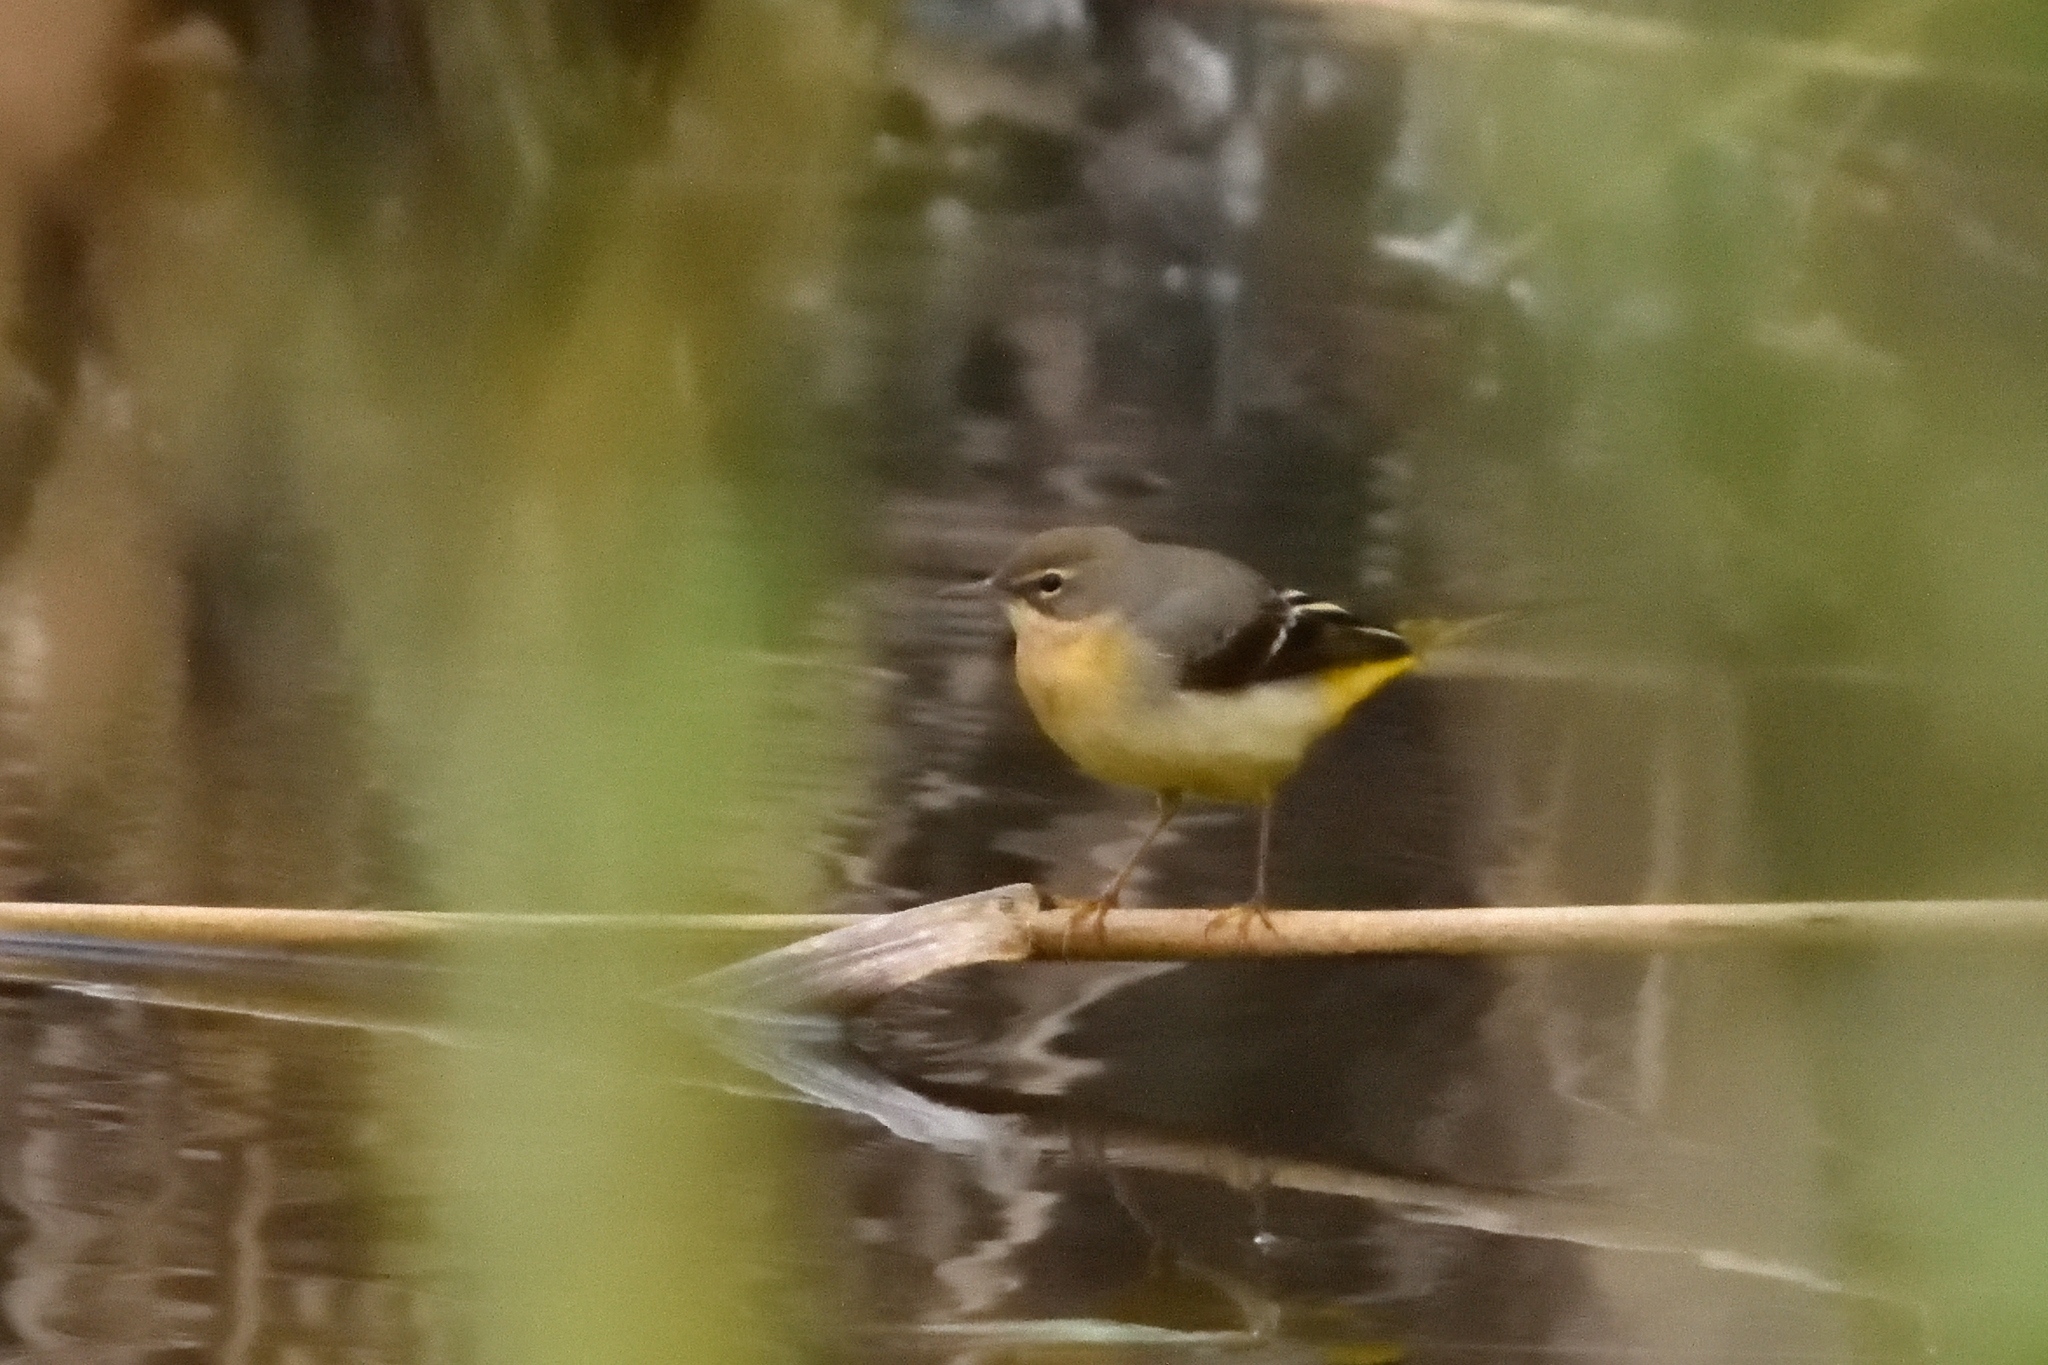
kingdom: Animalia
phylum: Chordata
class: Aves
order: Passeriformes
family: Motacillidae
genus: Motacilla
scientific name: Motacilla cinerea
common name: Grey wagtail
